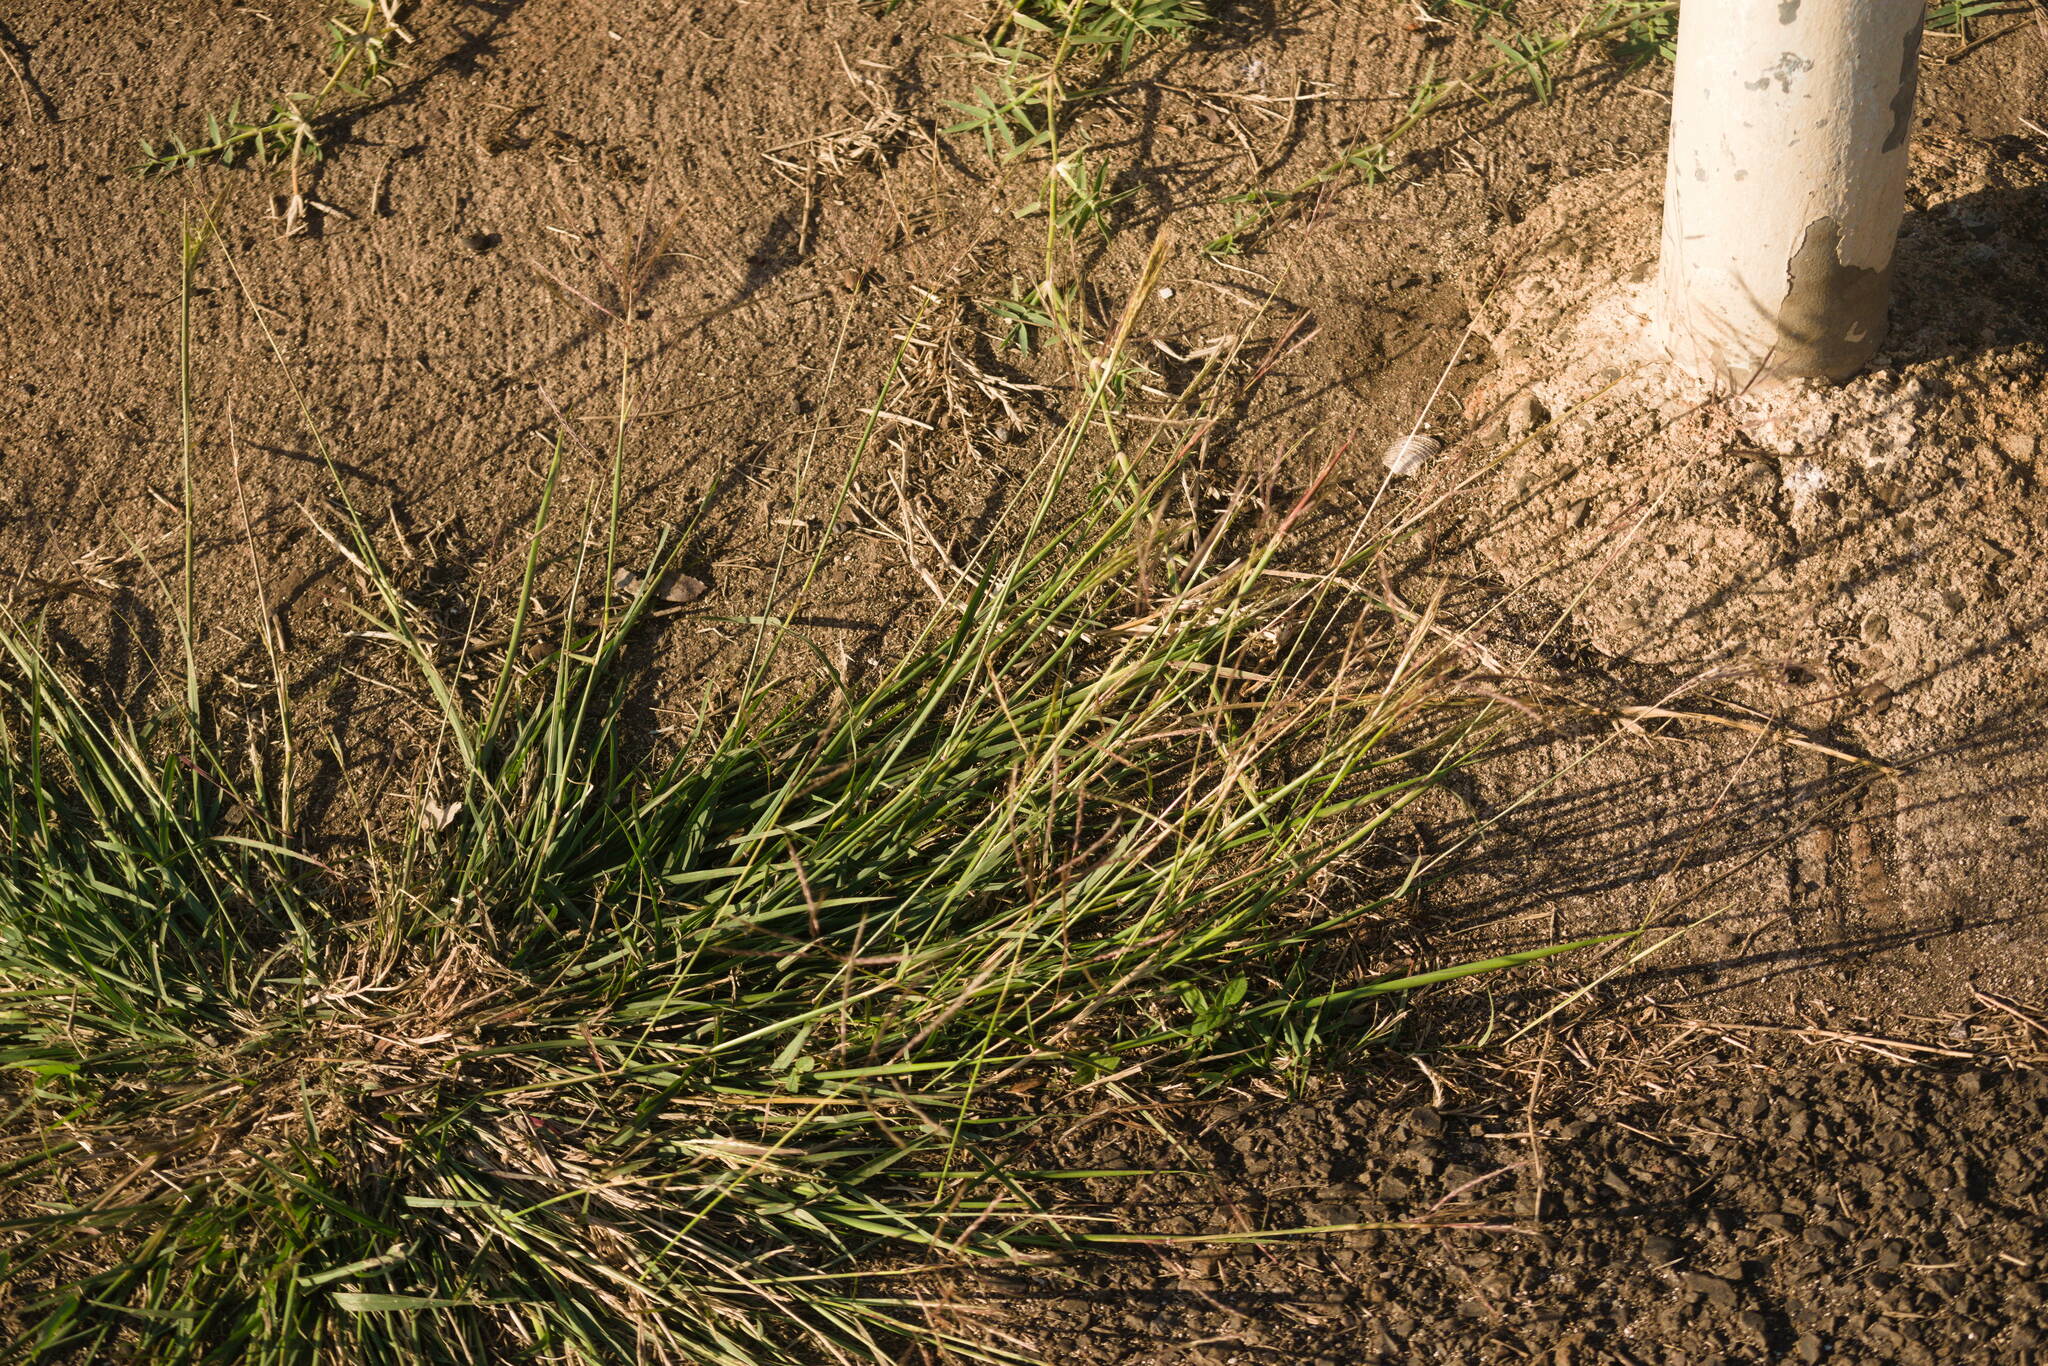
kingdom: Plantae
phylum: Tracheophyta
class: Liliopsida
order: Poales
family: Poaceae
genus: Dichanthium
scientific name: Dichanthium annulatum
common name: Kleberg's bluestem
